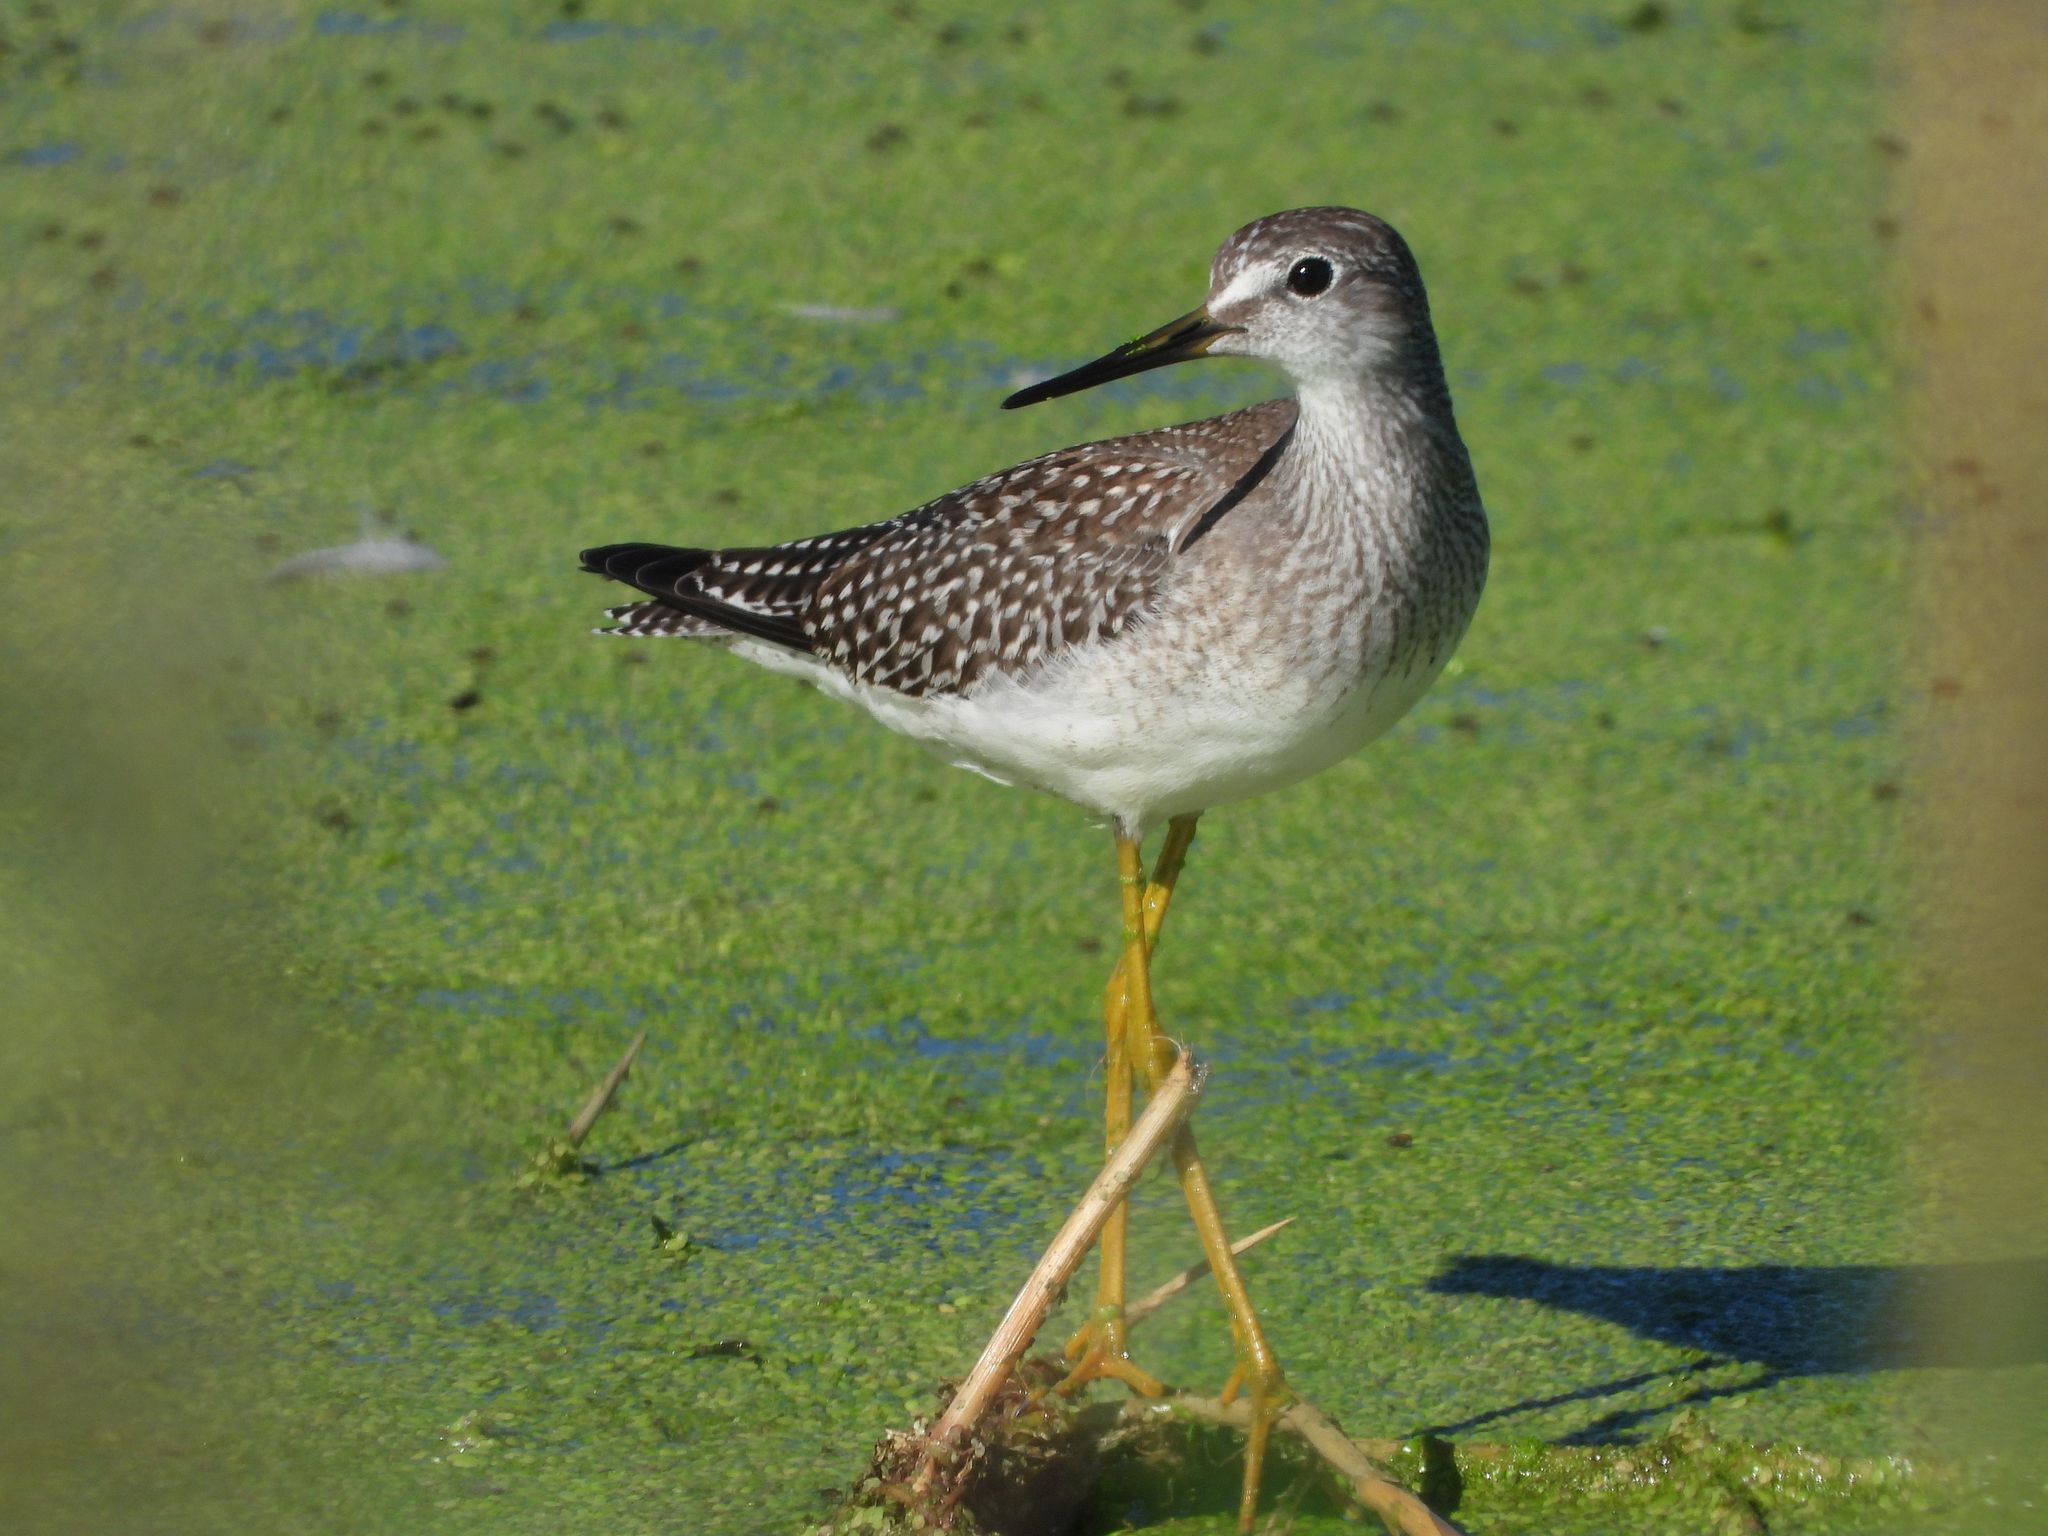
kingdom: Animalia
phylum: Chordata
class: Aves
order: Charadriiformes
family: Scolopacidae
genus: Tringa
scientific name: Tringa flavipes
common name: Lesser yellowlegs
